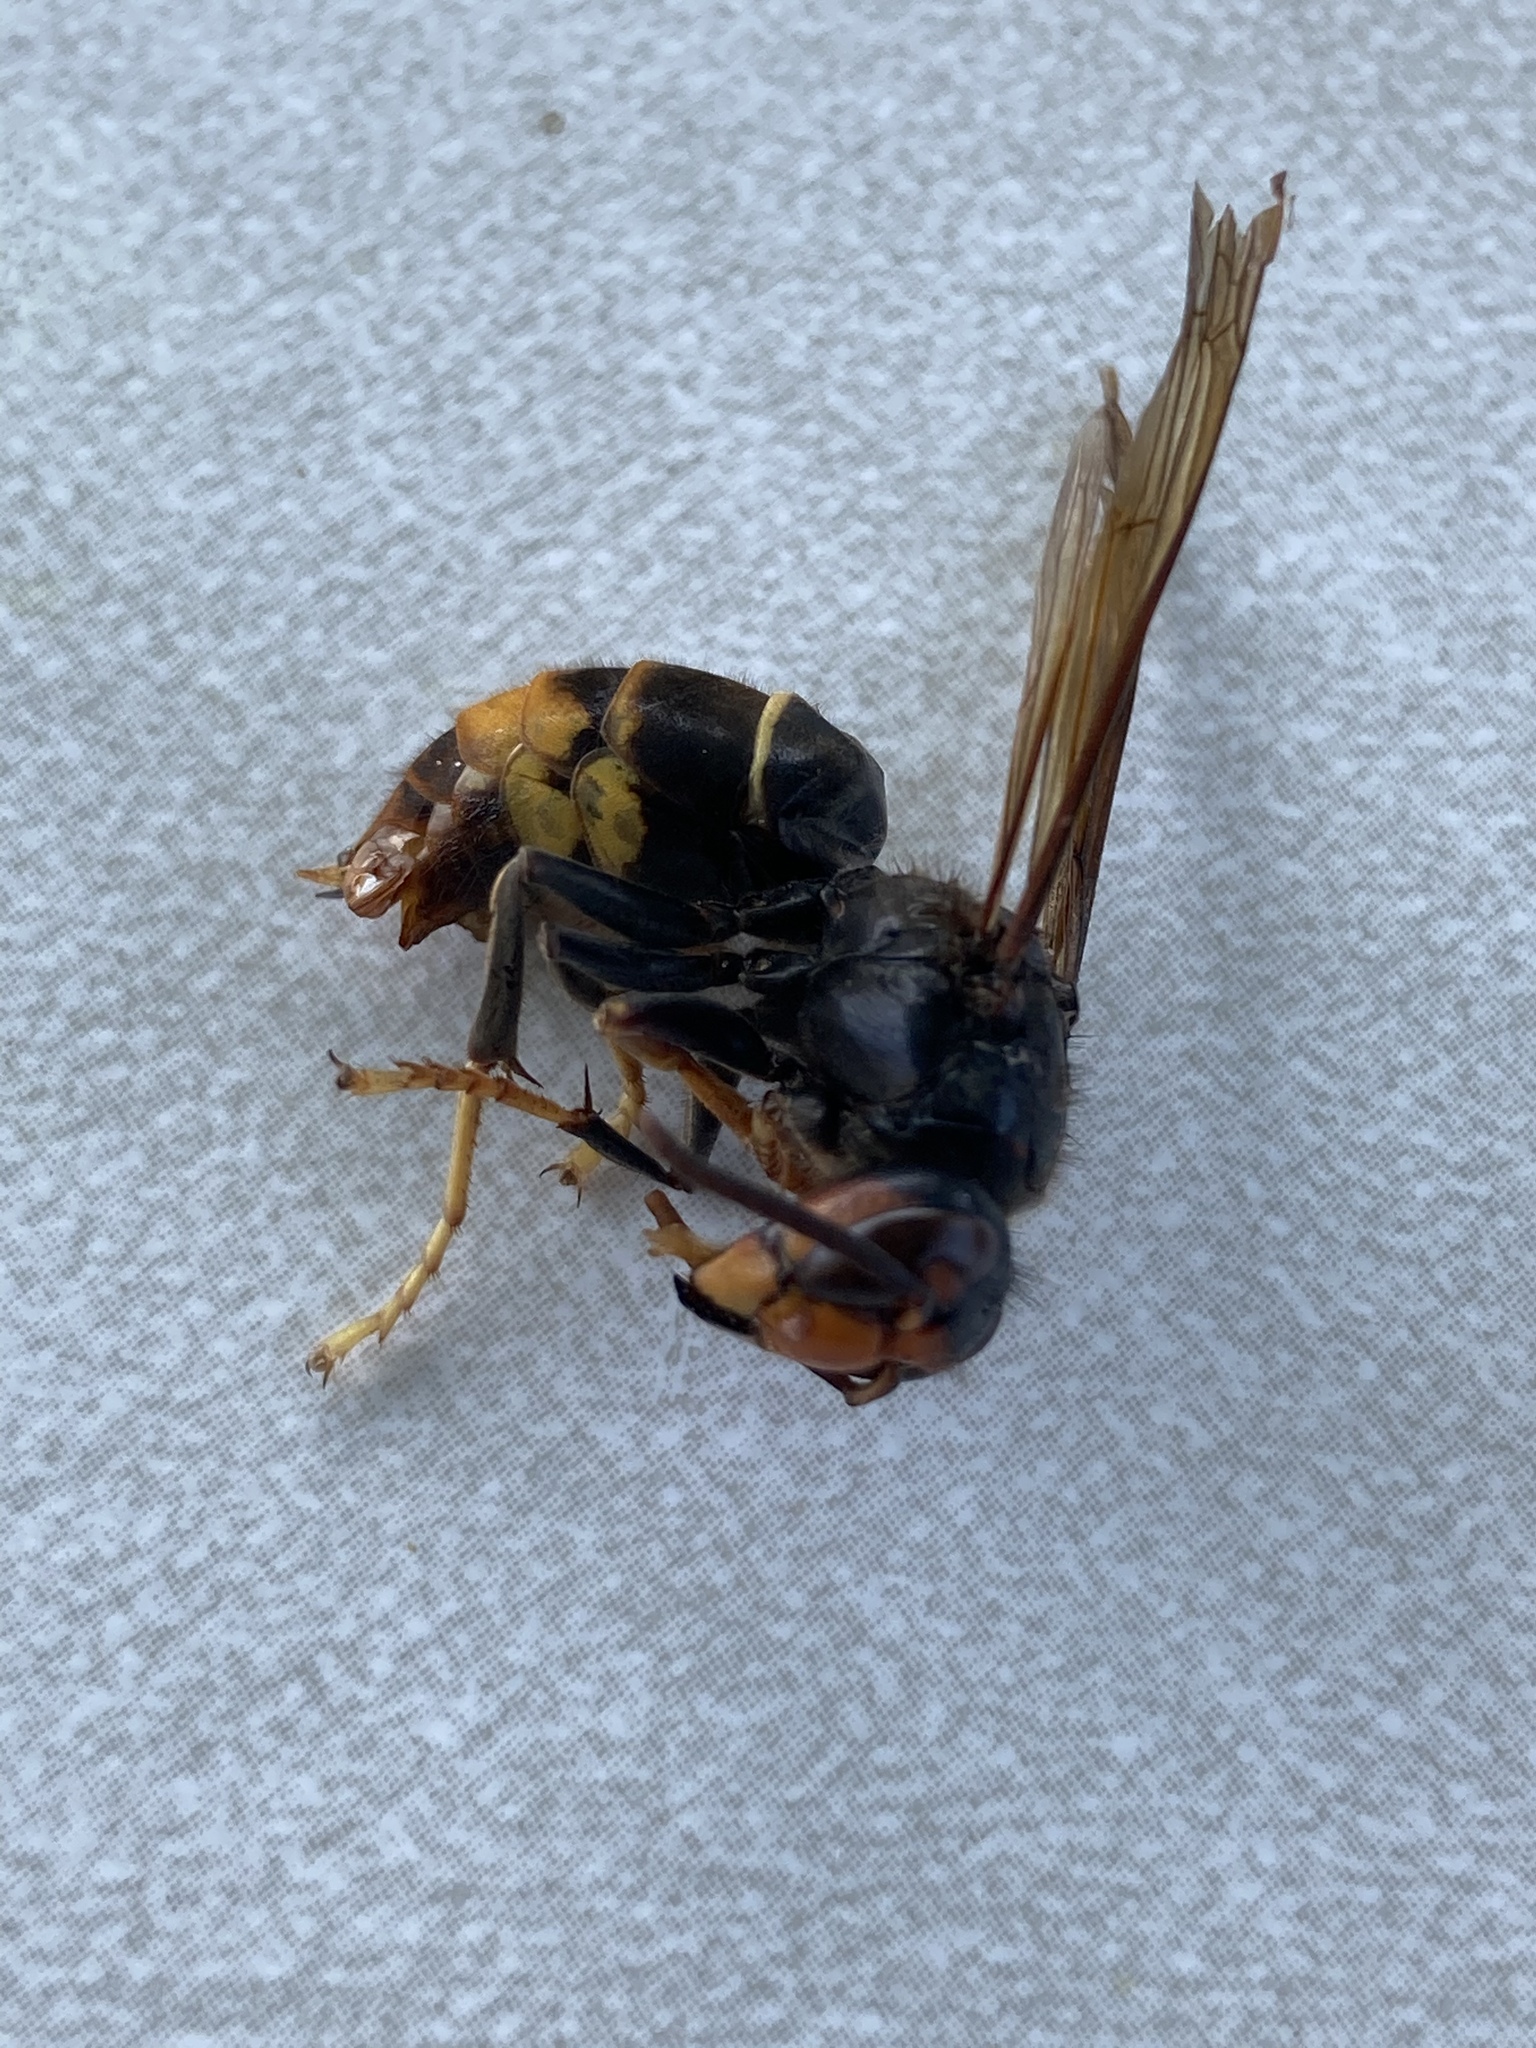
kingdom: Animalia
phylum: Arthropoda
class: Insecta
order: Hymenoptera
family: Vespidae
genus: Vespa
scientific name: Vespa velutina
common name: Asian hornet
